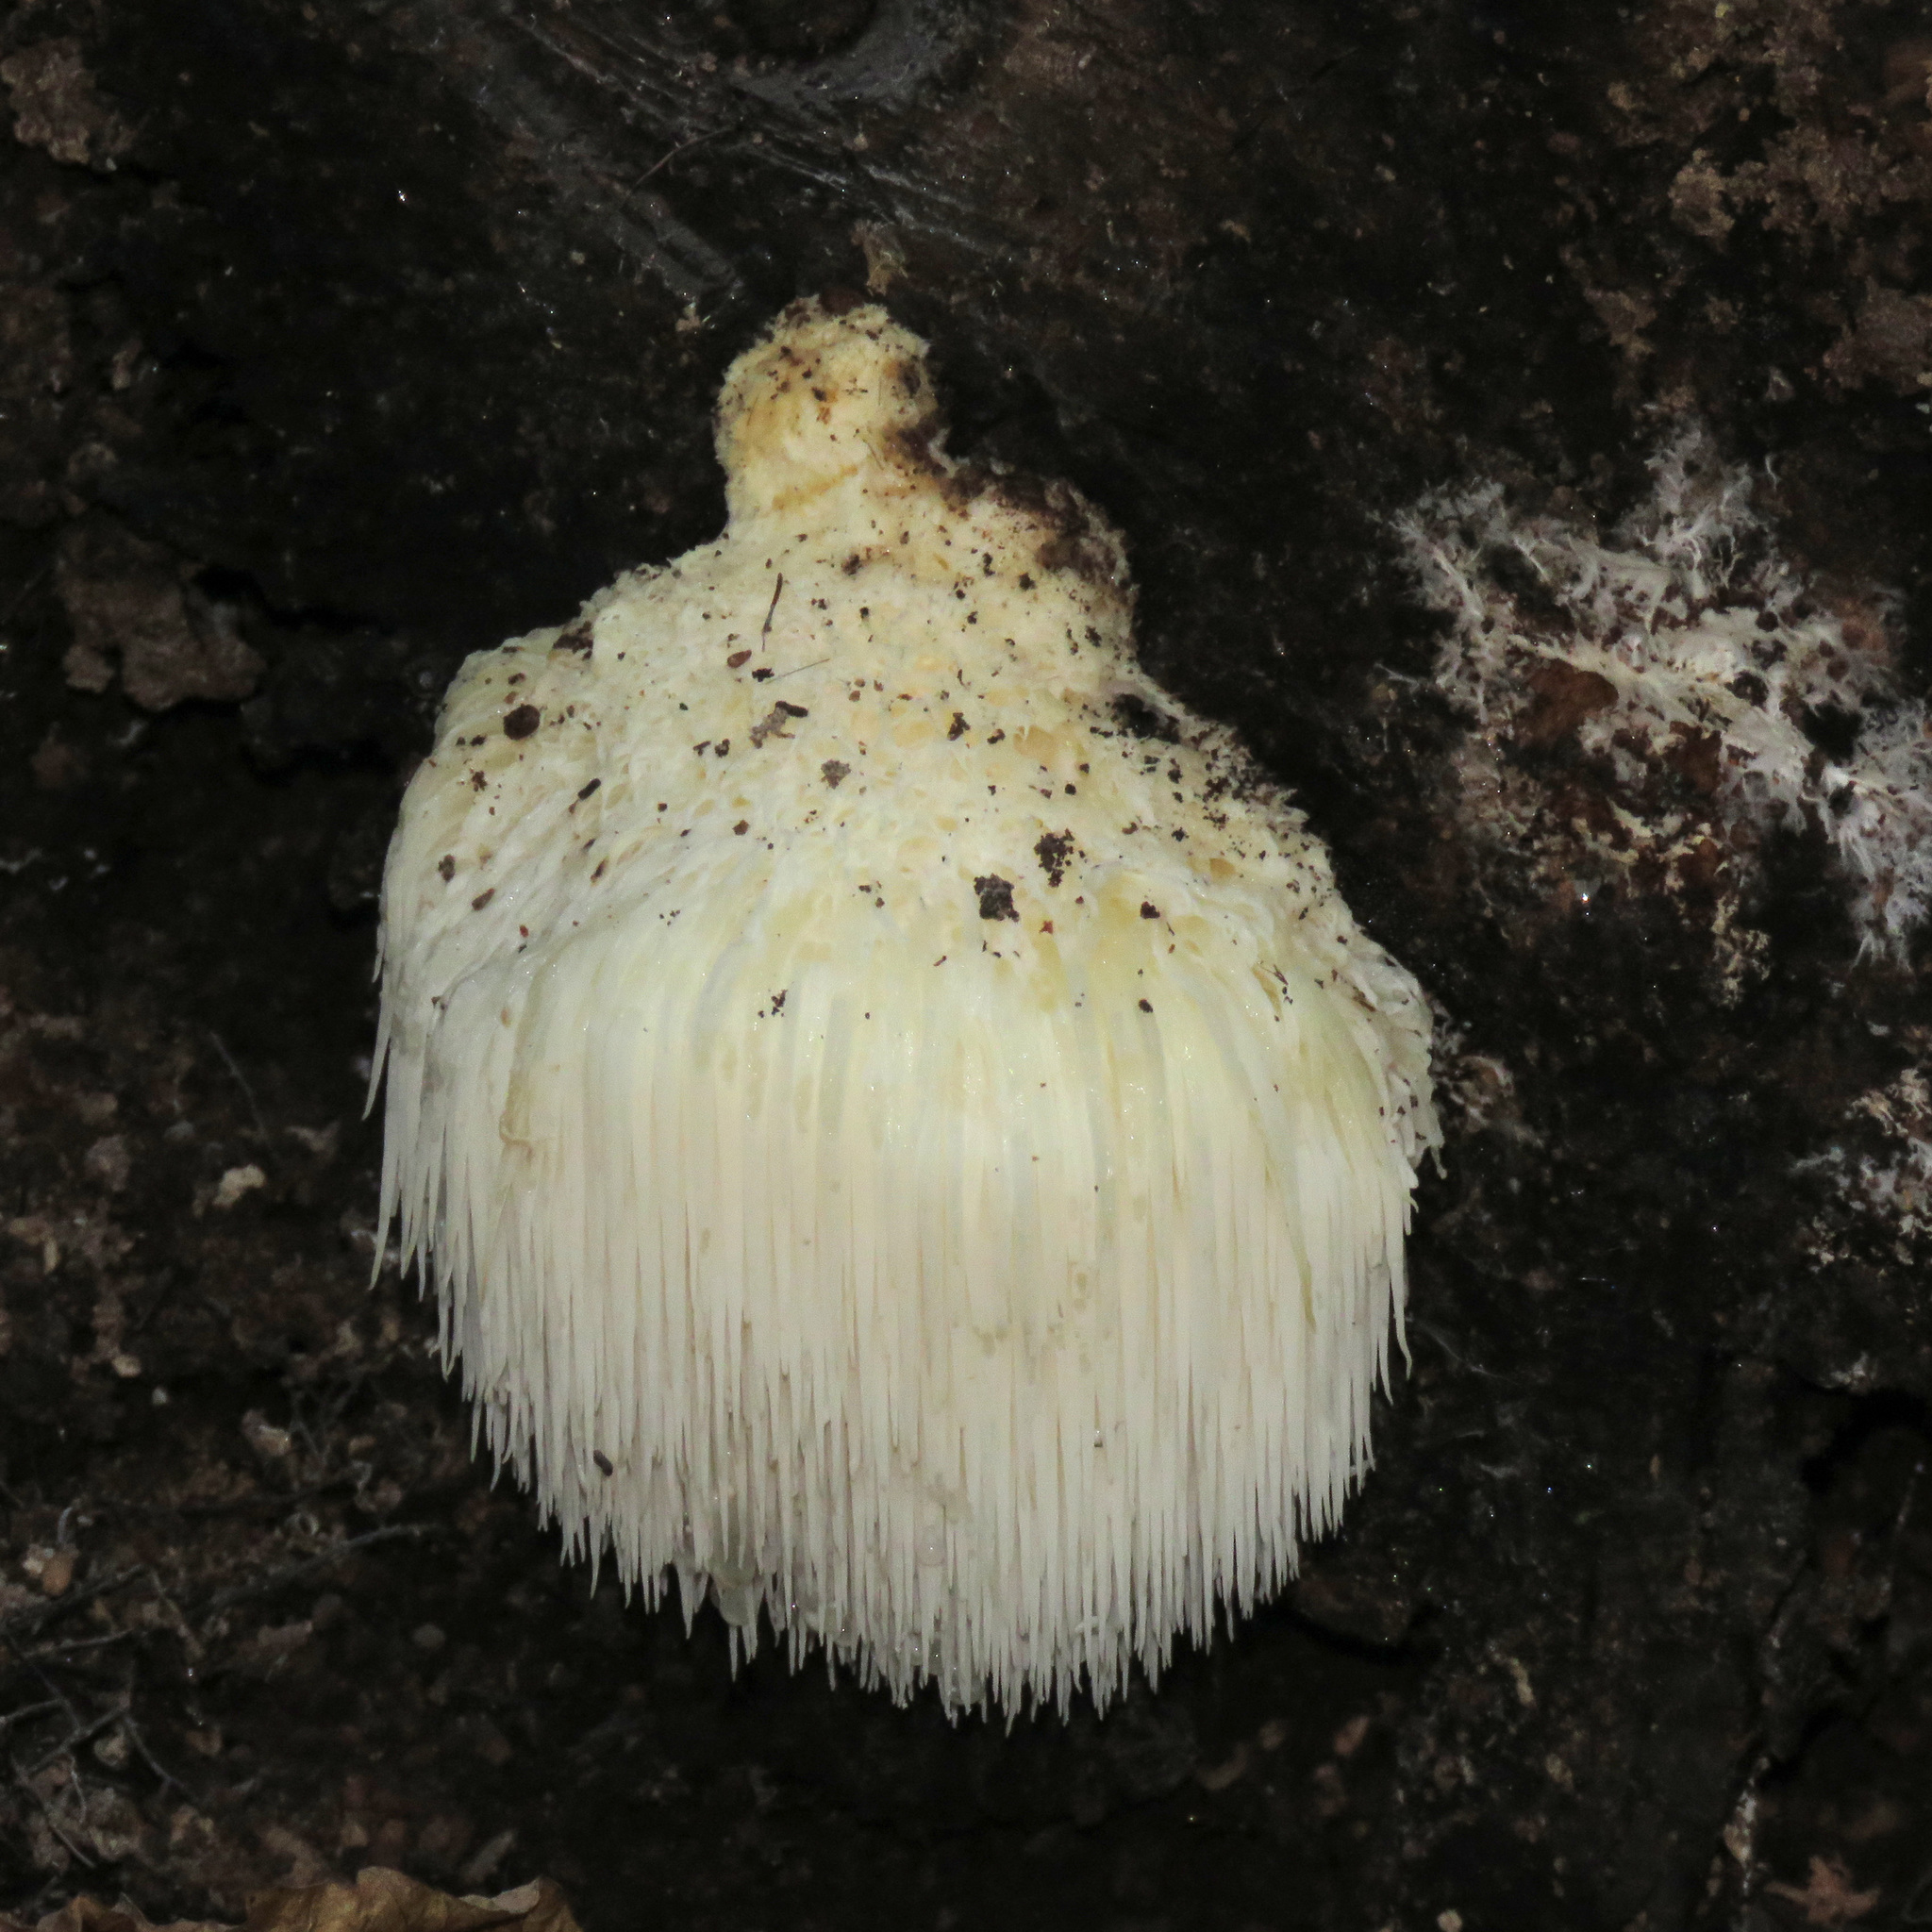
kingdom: Fungi
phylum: Basidiomycota
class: Agaricomycetes
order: Russulales
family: Hericiaceae
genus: Hericium
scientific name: Hericium erinaceus
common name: Bearded tooth
